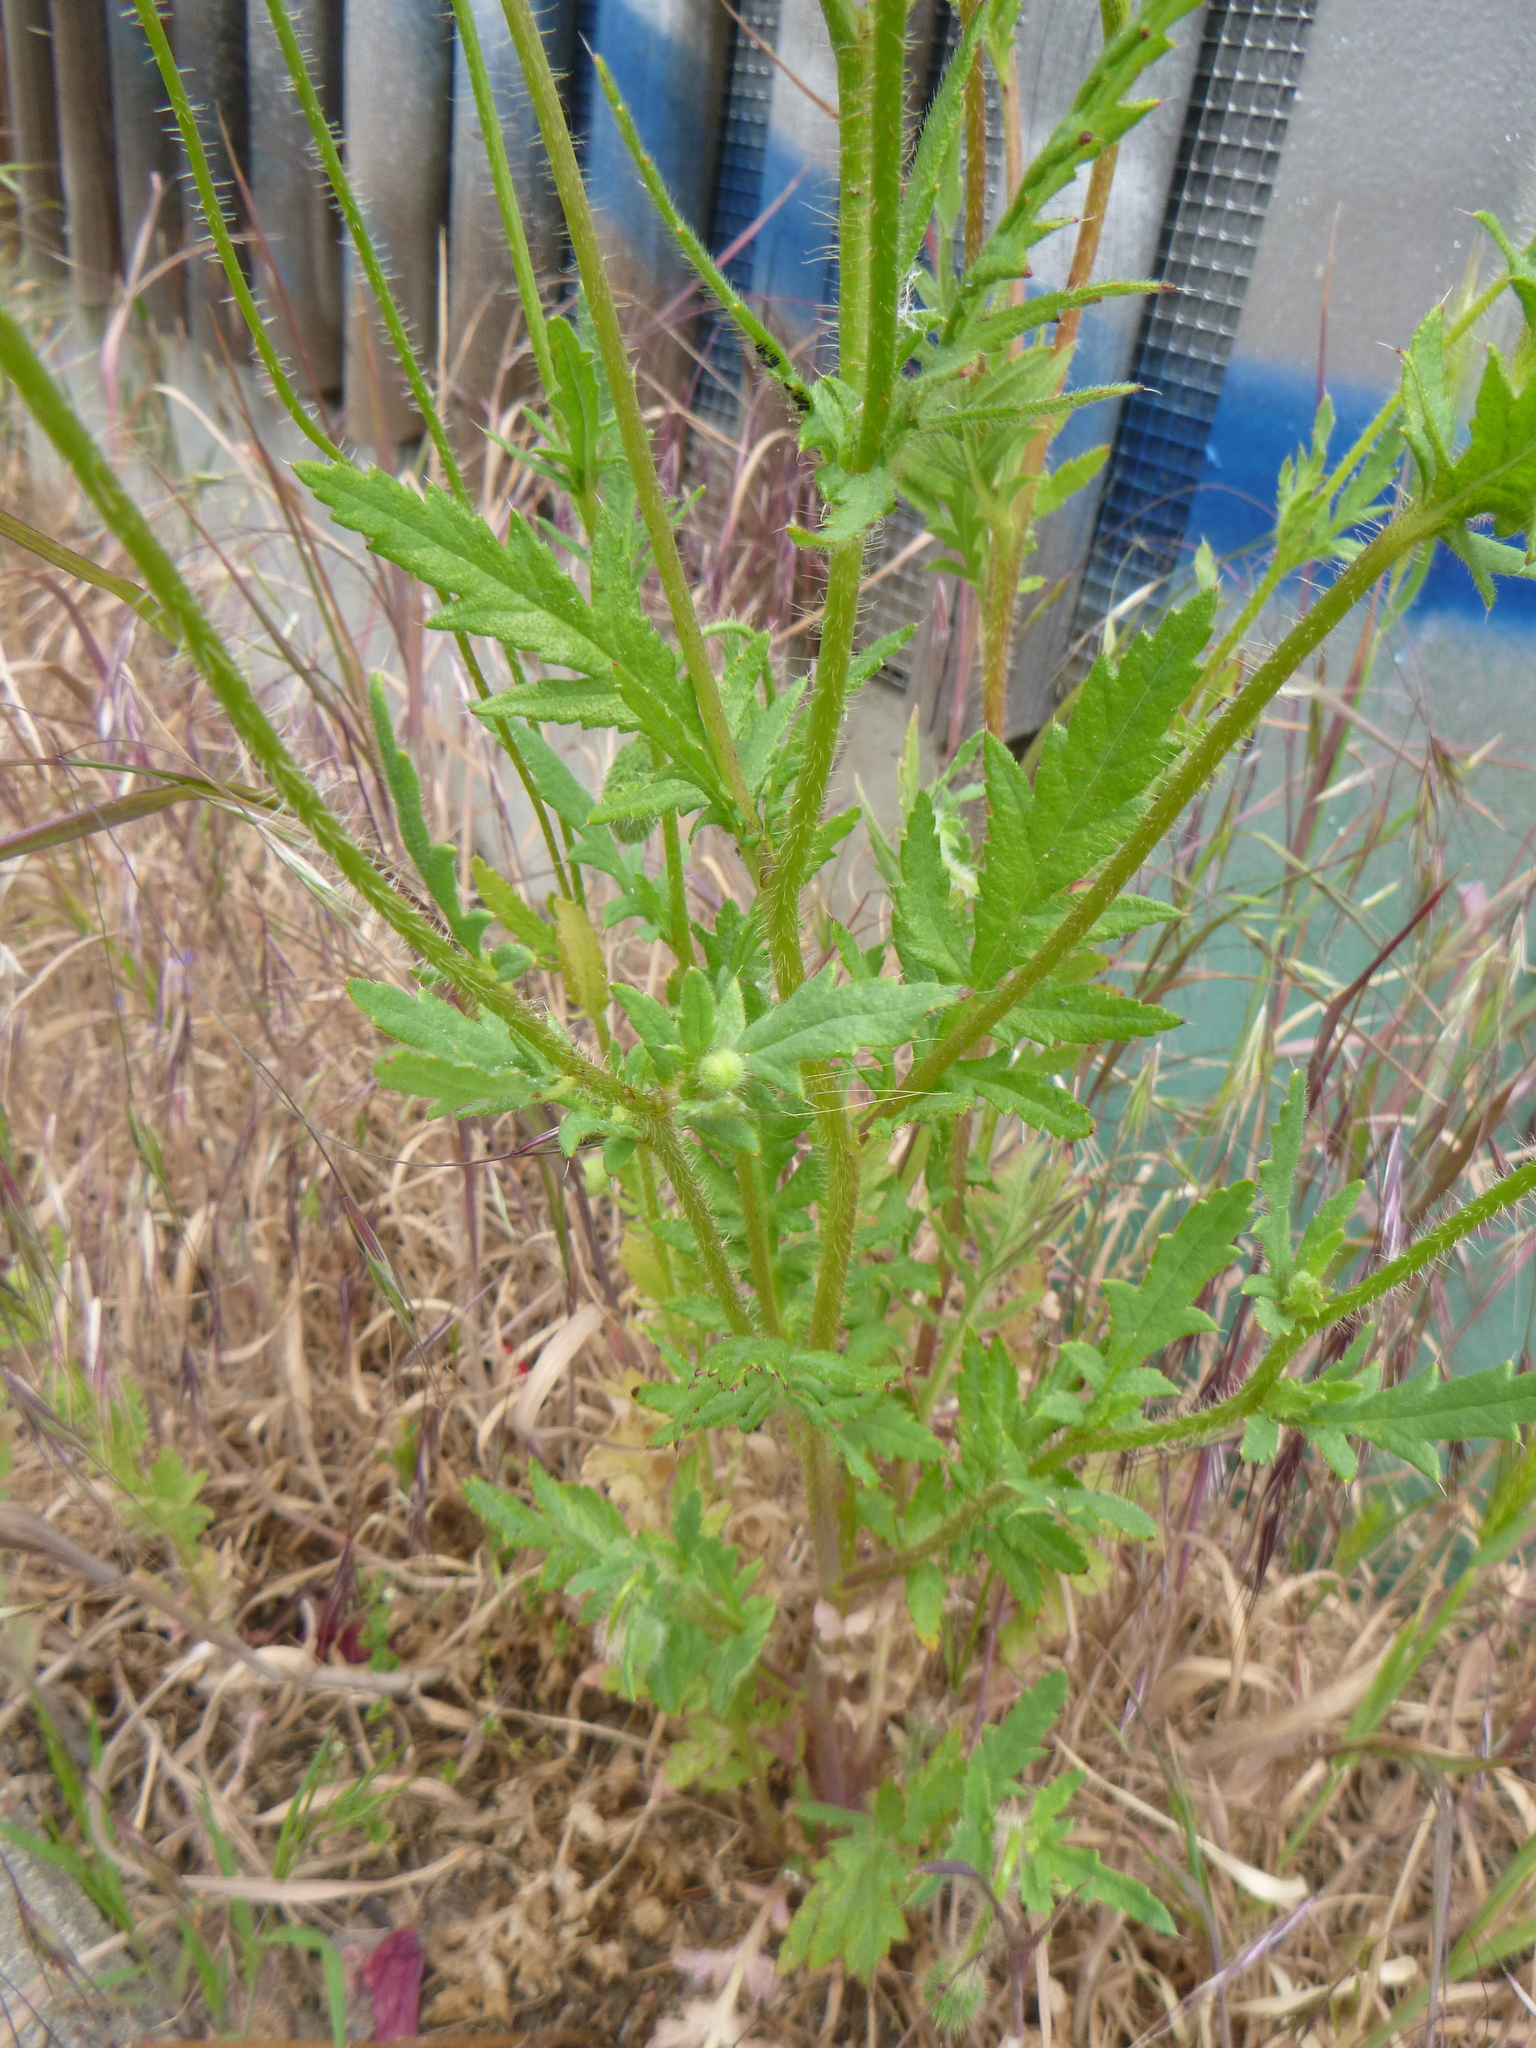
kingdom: Plantae
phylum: Tracheophyta
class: Magnoliopsida
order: Ranunculales
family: Papaveraceae
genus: Papaver
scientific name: Papaver rhoeas
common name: Corn poppy
